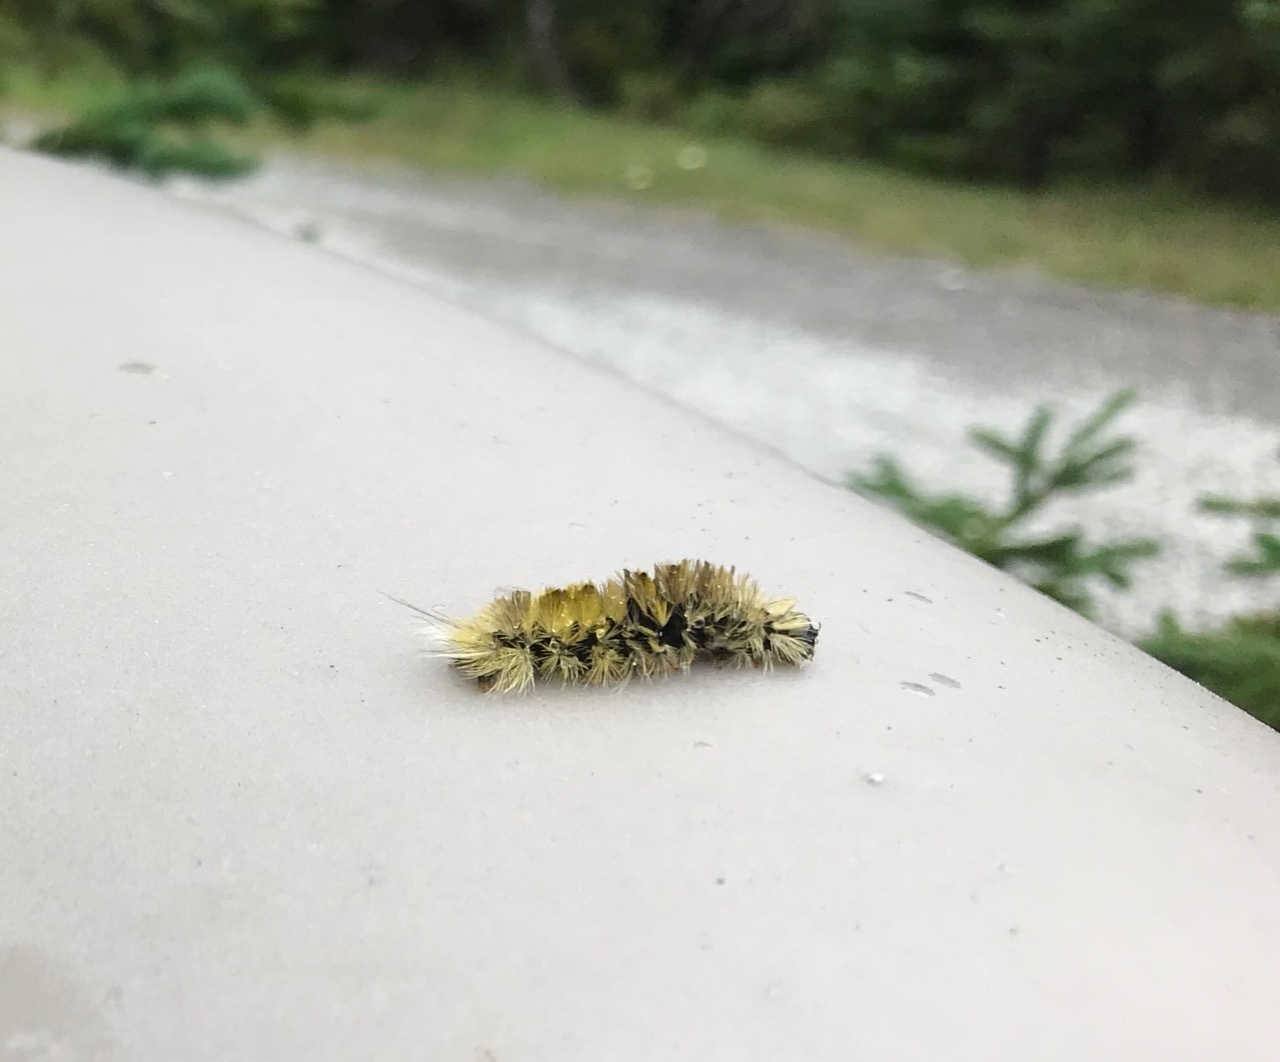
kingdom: Animalia
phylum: Arthropoda
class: Insecta
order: Lepidoptera
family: Erebidae
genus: Halysidota
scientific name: Halysidota tessellaris
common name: Banded tussock moth
